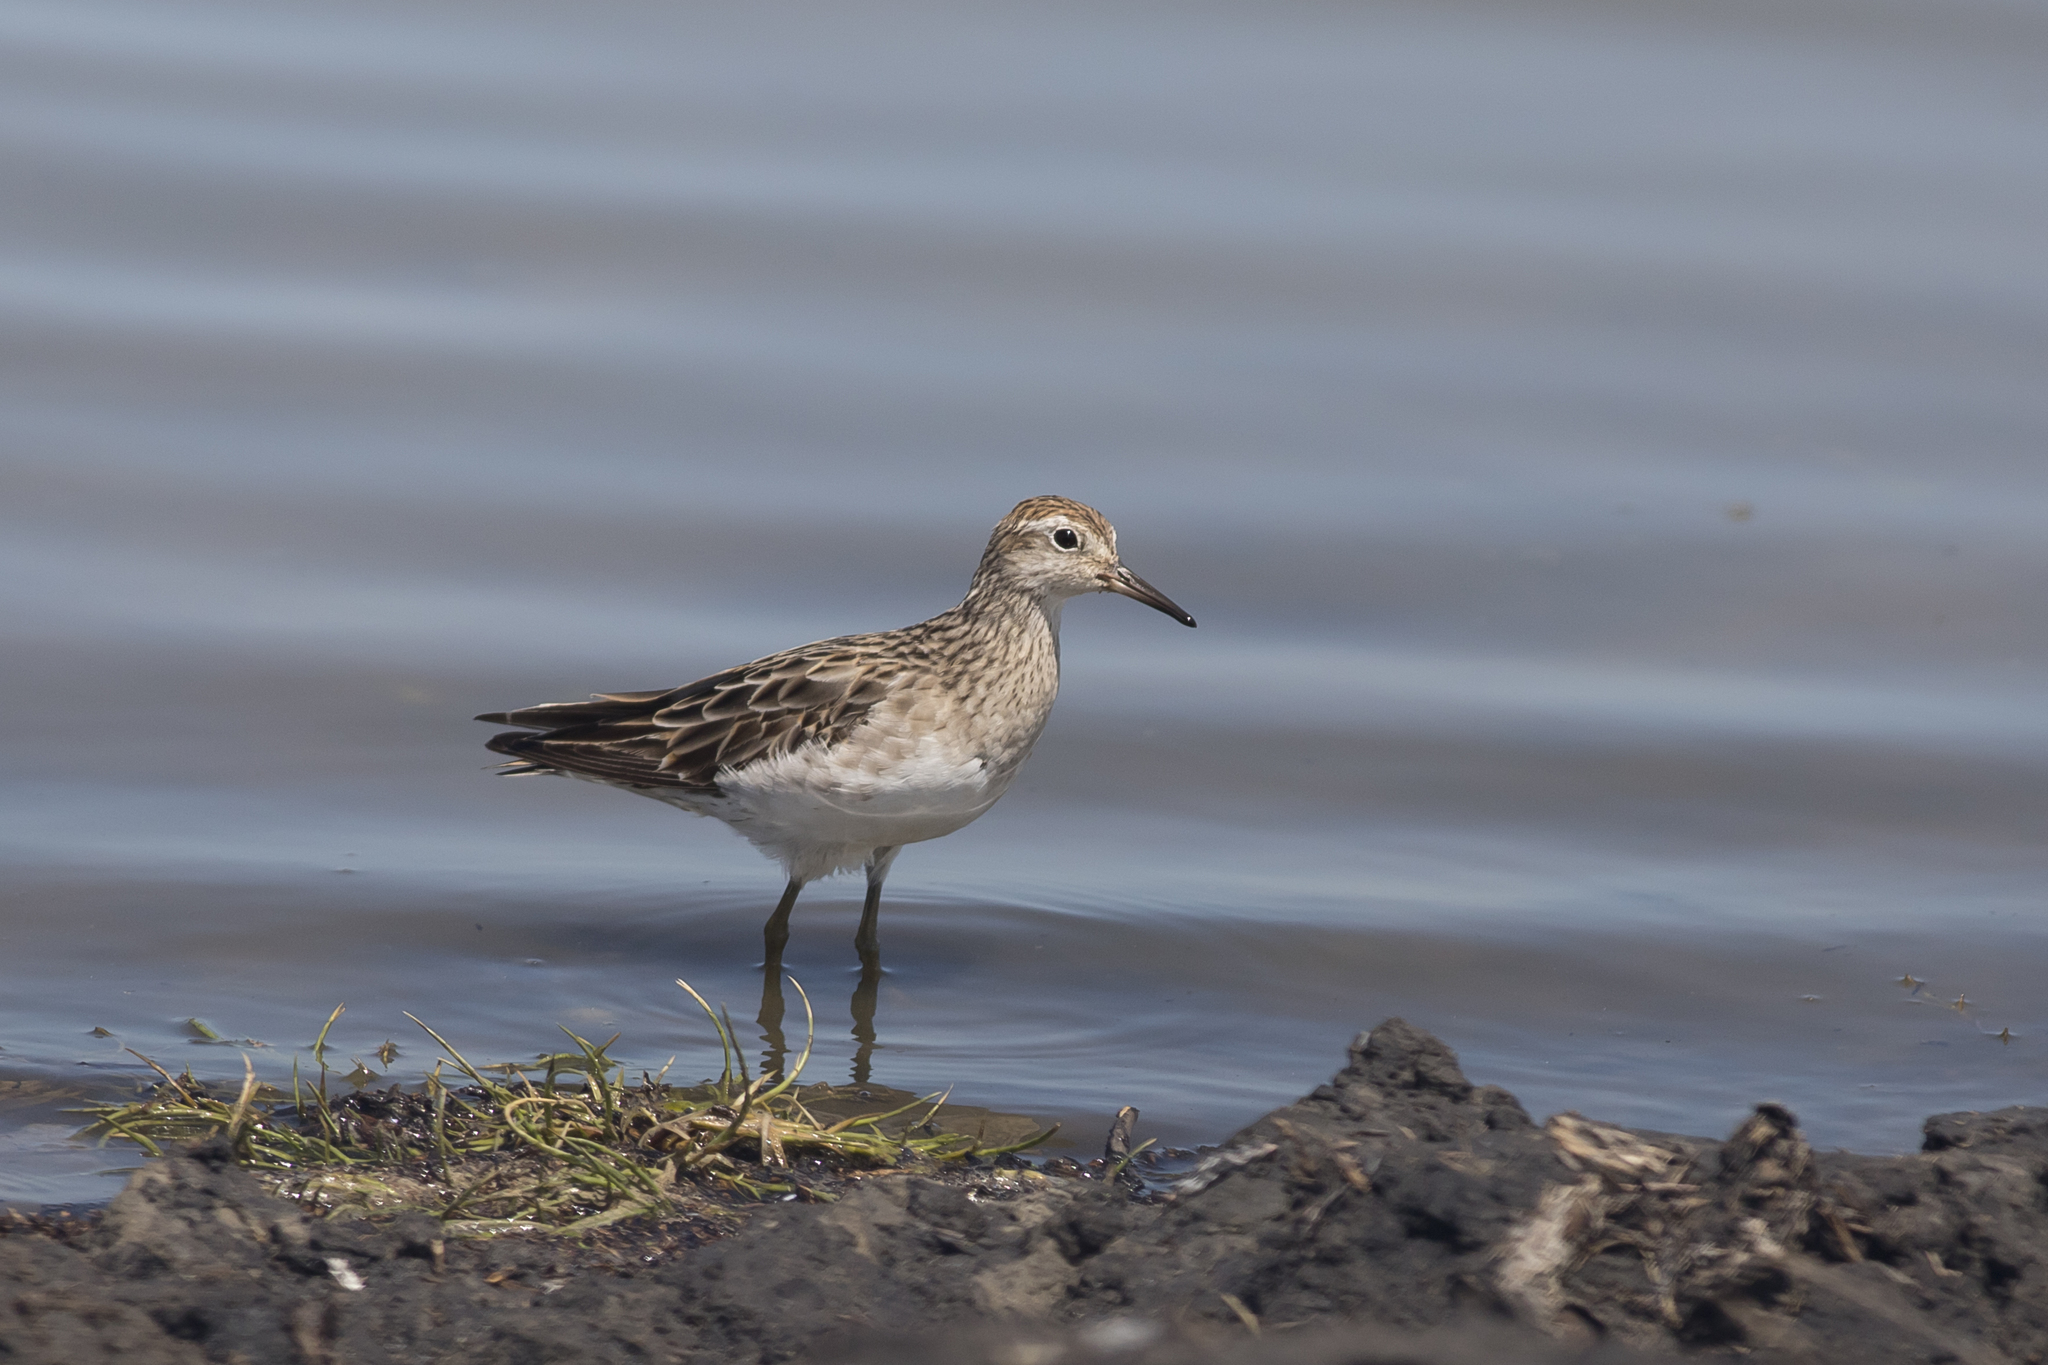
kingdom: Animalia
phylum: Chordata
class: Aves
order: Charadriiformes
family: Scolopacidae
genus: Calidris
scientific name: Calidris acuminata
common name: Sharp-tailed sandpiper
